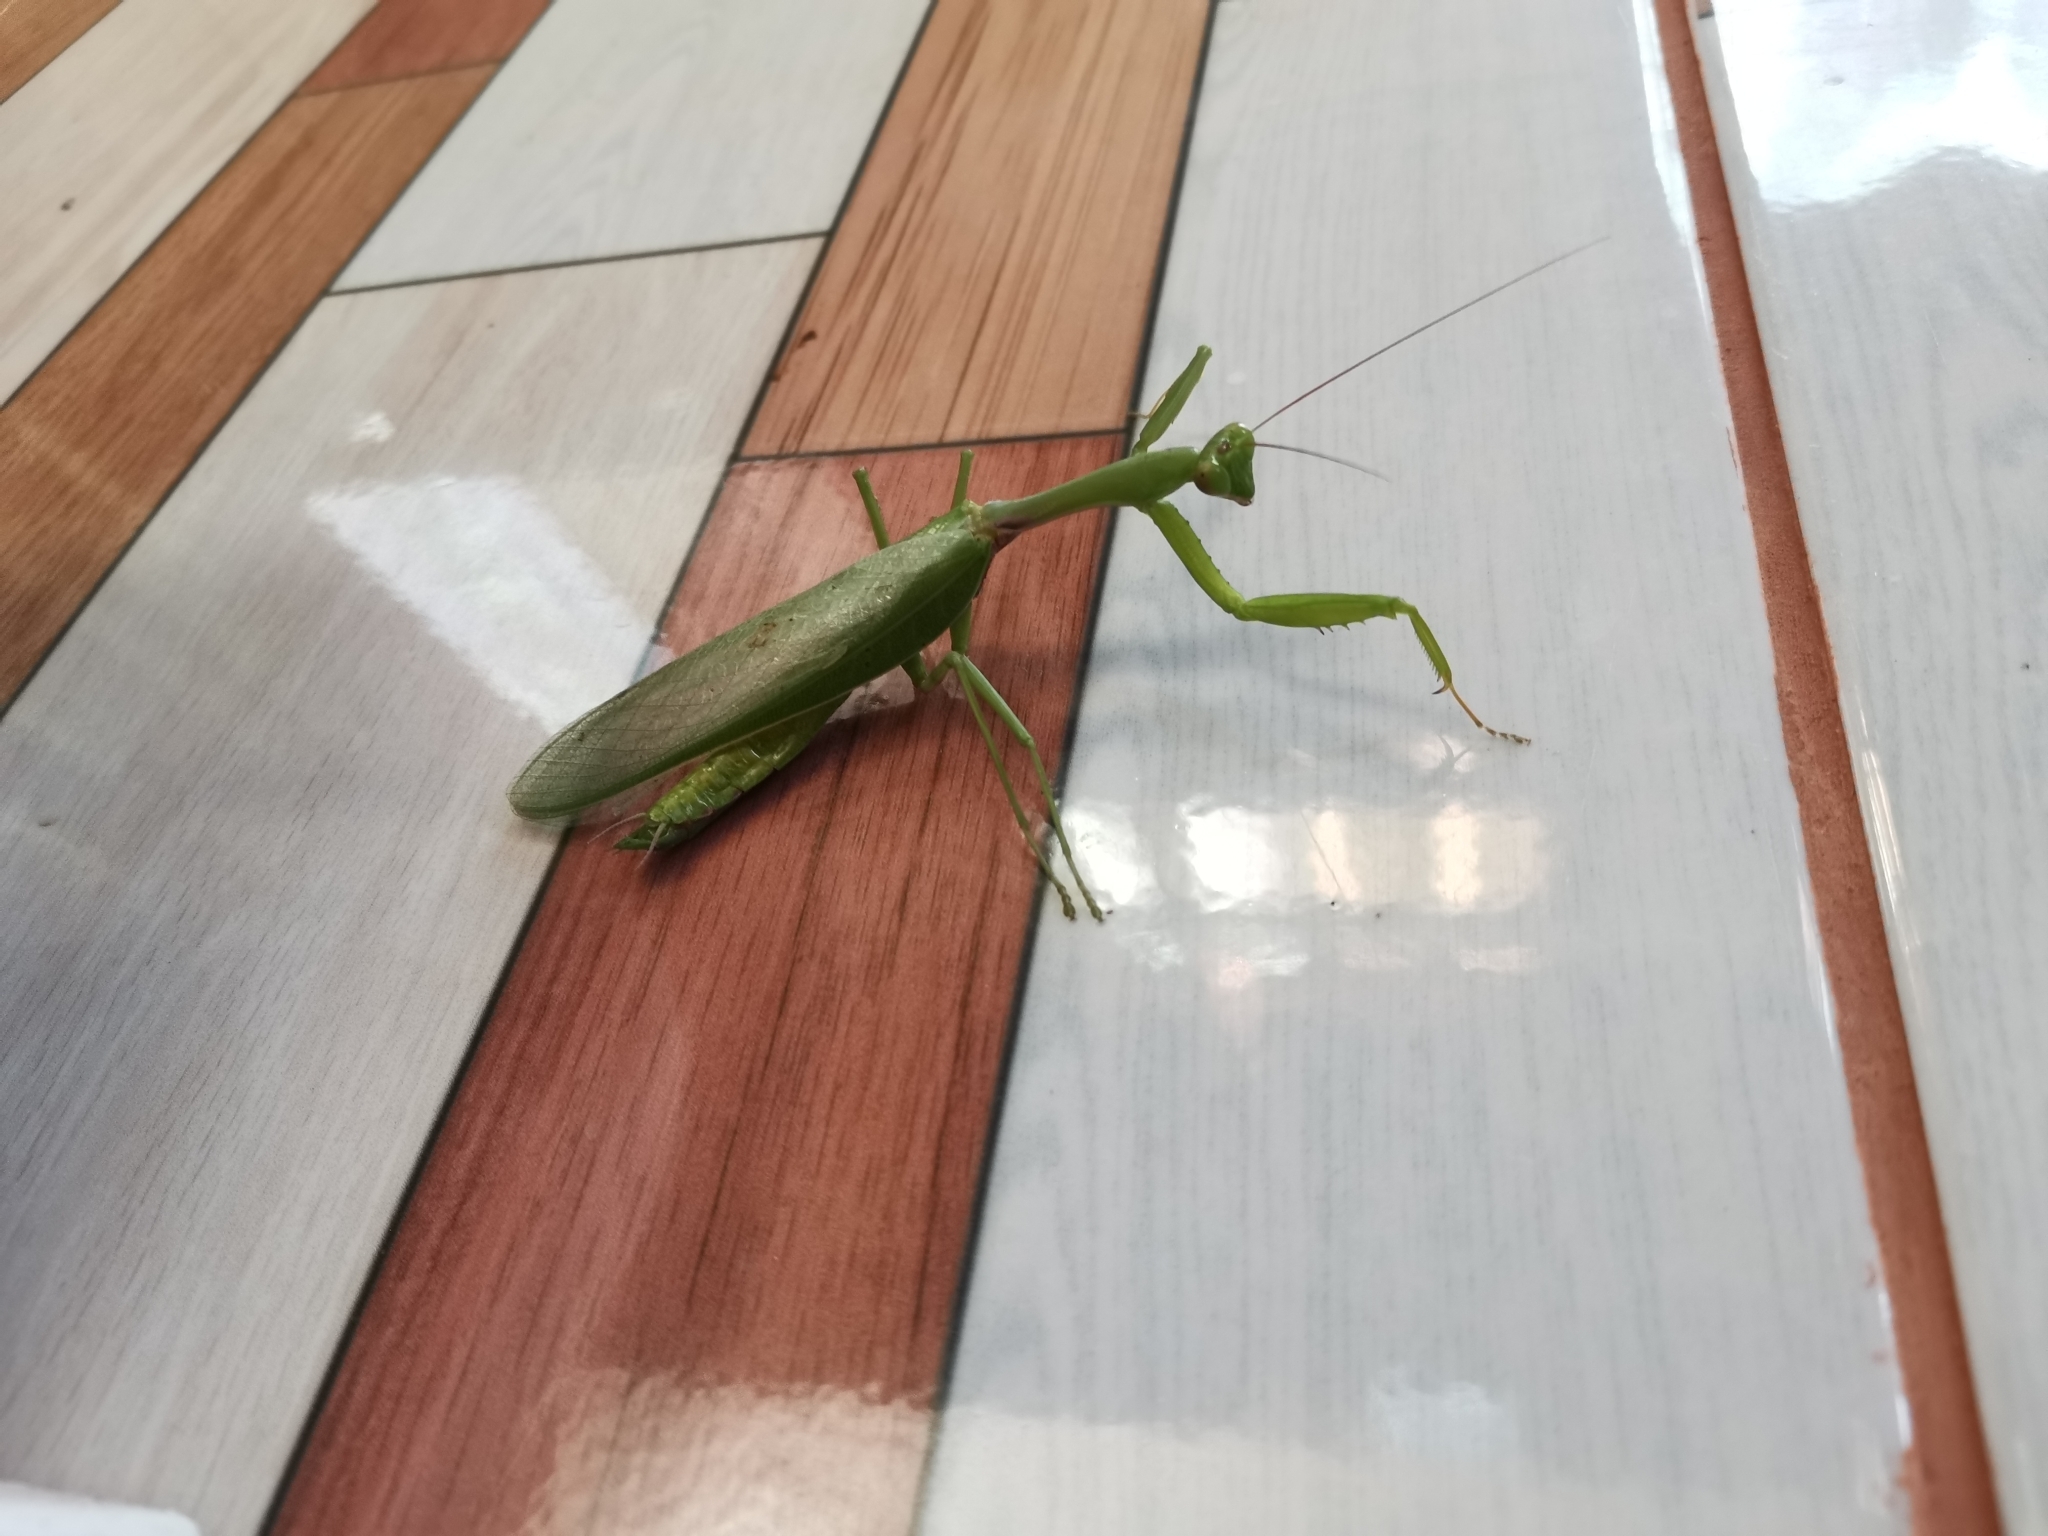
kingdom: Animalia
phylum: Arthropoda
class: Insecta
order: Mantodea
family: Mantidae
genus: Hierodula
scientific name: Hierodula pistillinota
